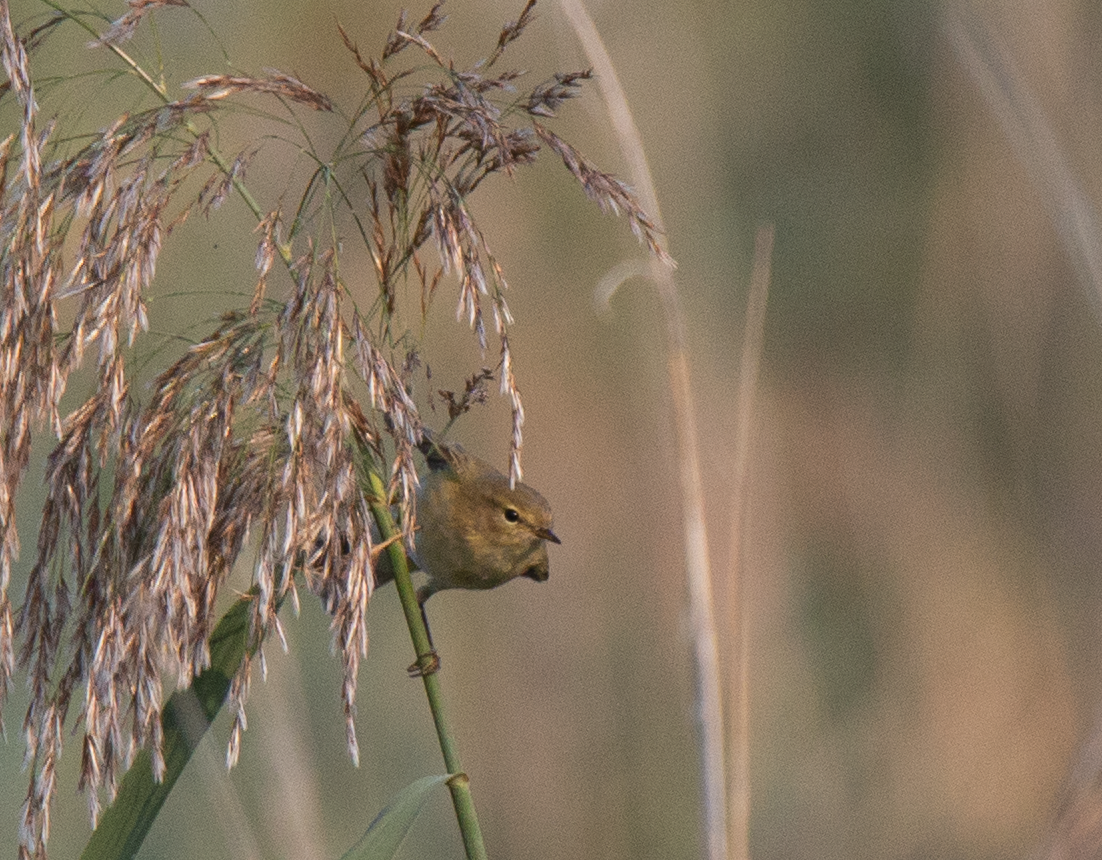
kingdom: Animalia
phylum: Chordata
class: Aves
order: Passeriformes
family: Phylloscopidae
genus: Phylloscopus
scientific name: Phylloscopus collybita
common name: Common chiffchaff
